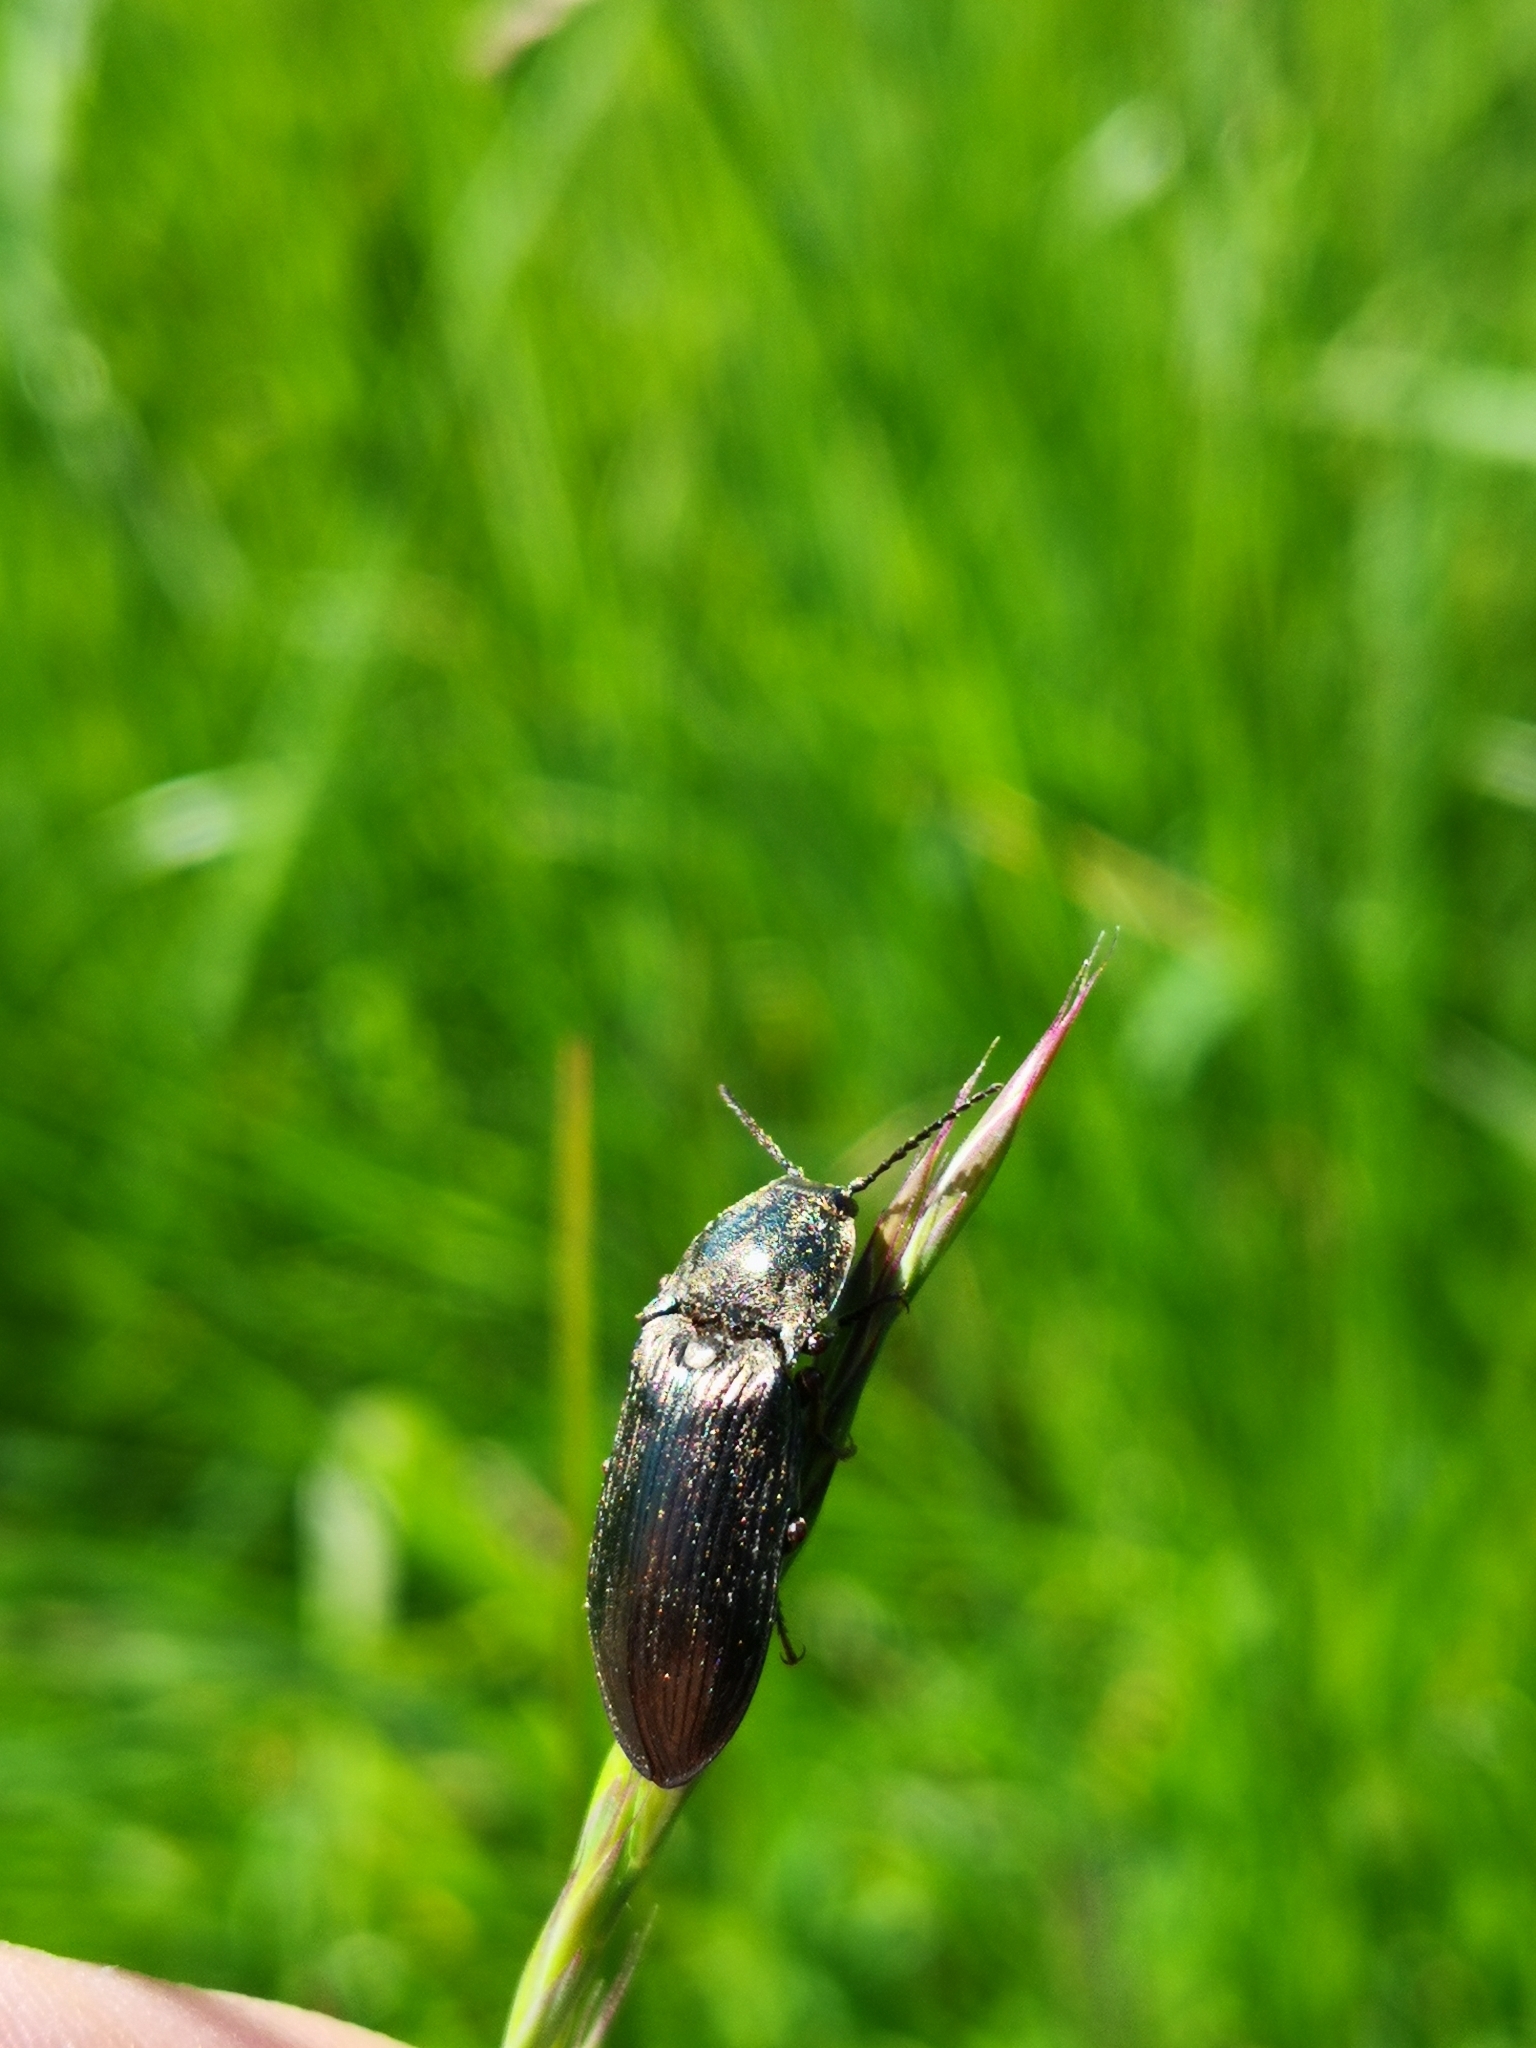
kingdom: Animalia
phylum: Arthropoda
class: Insecta
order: Coleoptera
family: Elateridae
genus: Selatosomus
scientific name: Selatosomus latus
